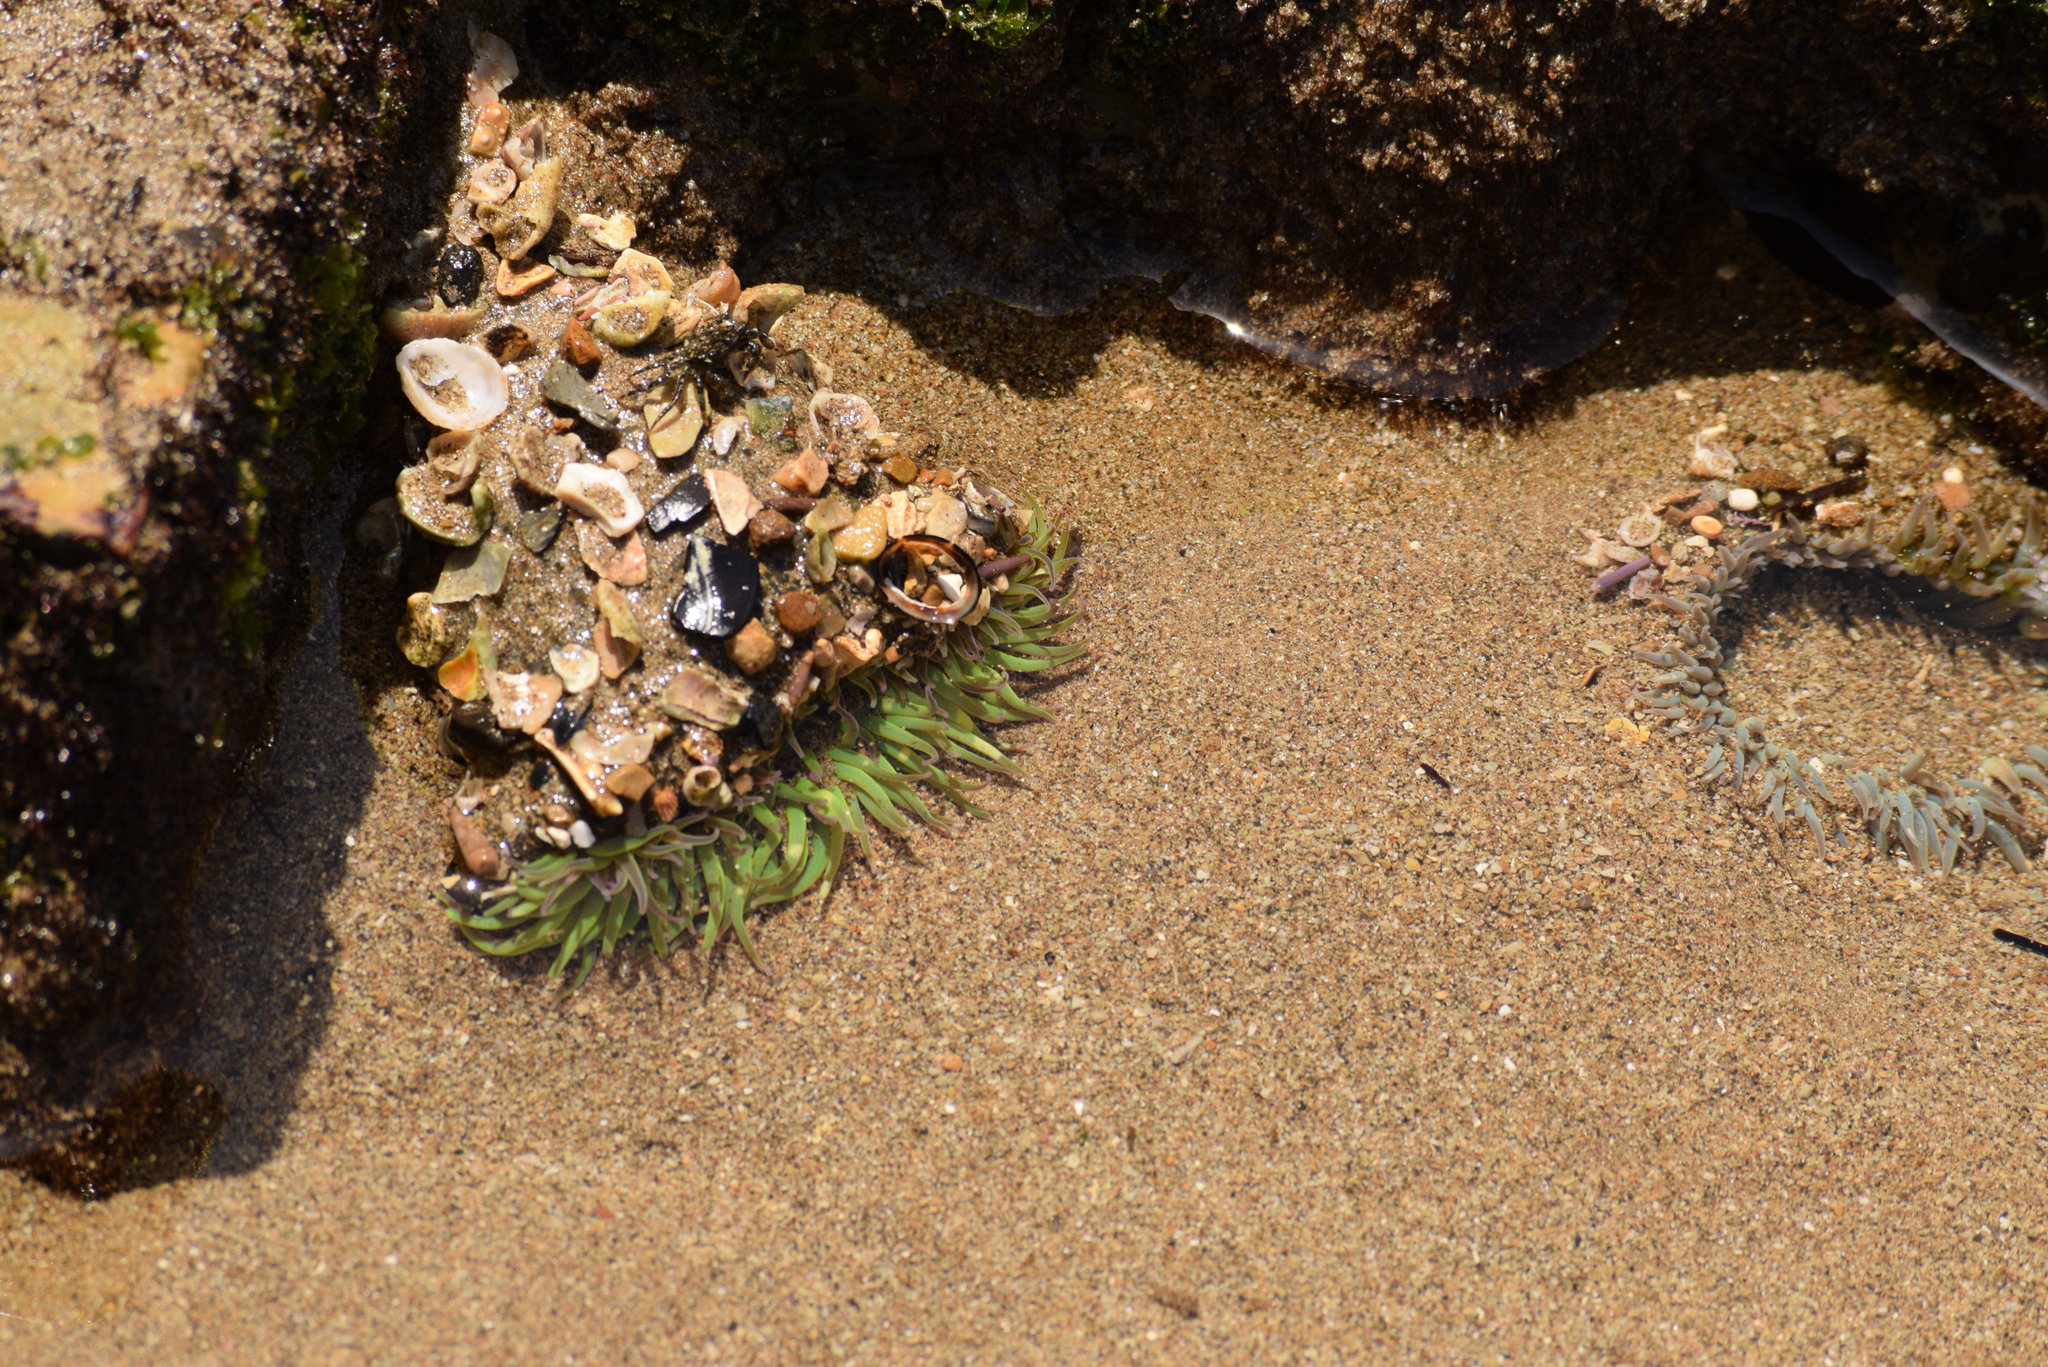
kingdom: Animalia
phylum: Cnidaria
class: Anthozoa
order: Actiniaria
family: Actiniidae
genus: Anthopleura
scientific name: Anthopleura sola
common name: Sun anemone
